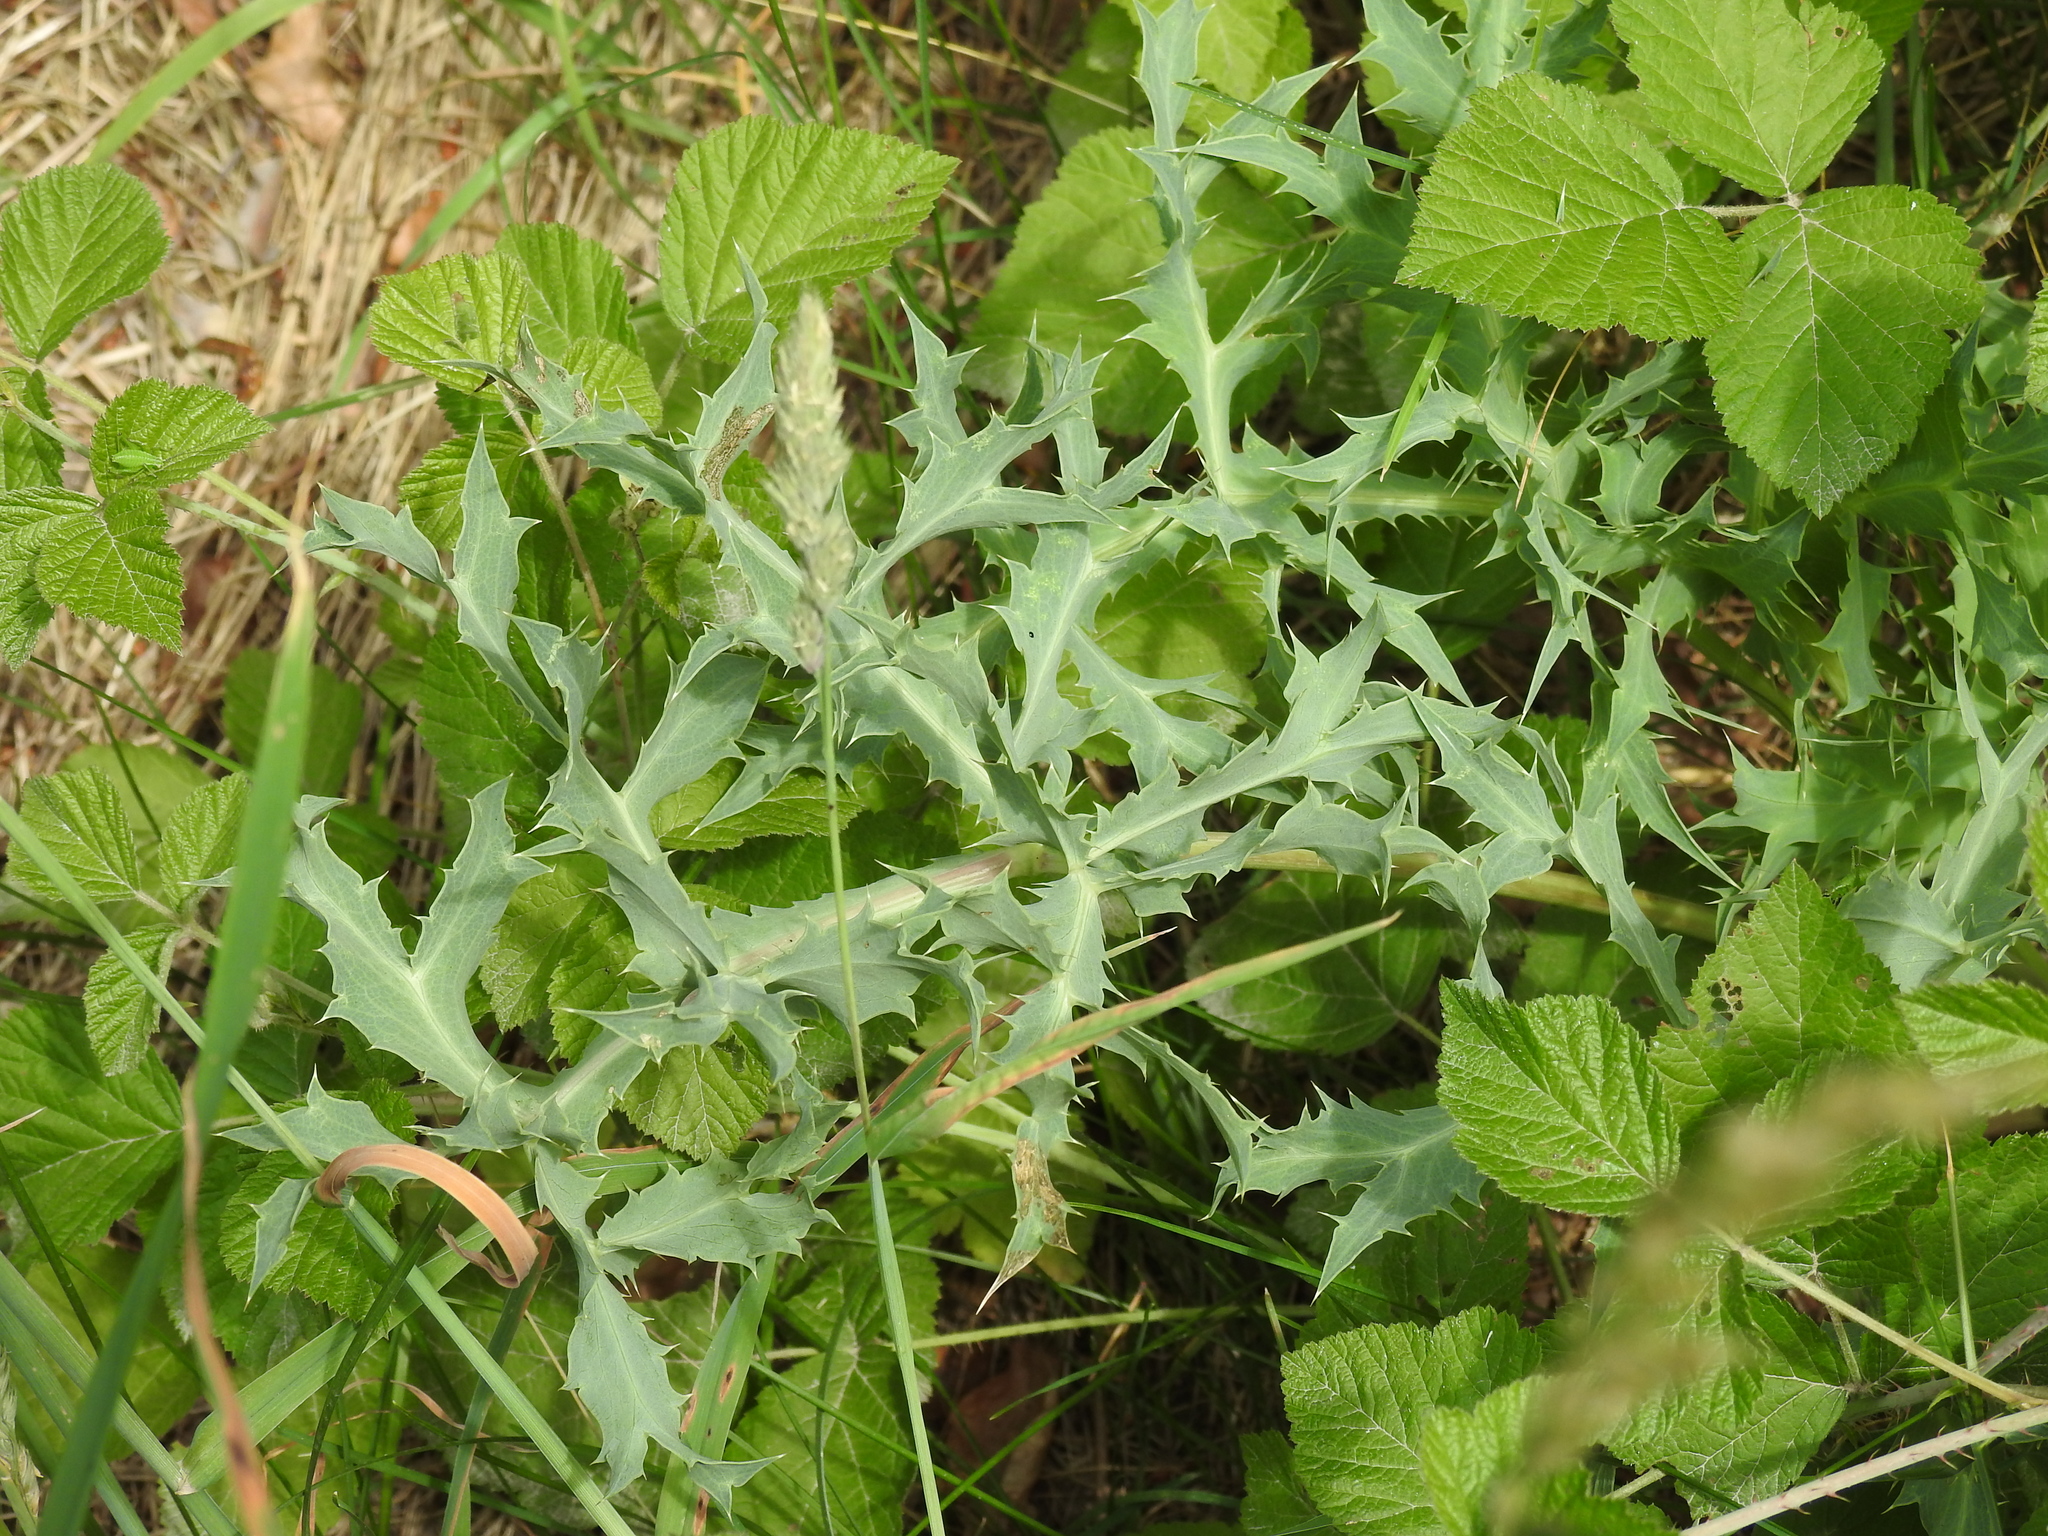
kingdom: Plantae
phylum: Tracheophyta
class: Magnoliopsida
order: Apiales
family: Apiaceae
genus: Eryngium
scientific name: Eryngium campestre
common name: Field eryngo
